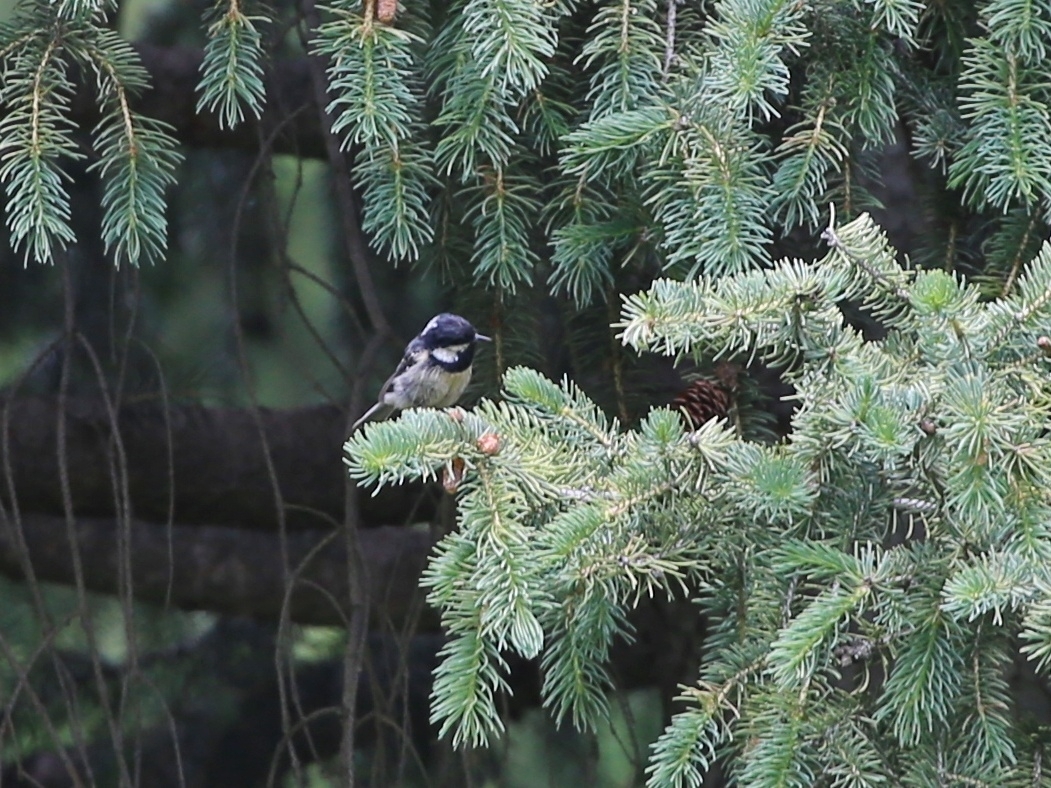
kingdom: Animalia
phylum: Chordata
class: Aves
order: Passeriformes
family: Paridae
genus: Periparus
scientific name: Periparus ater
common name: Coal tit
